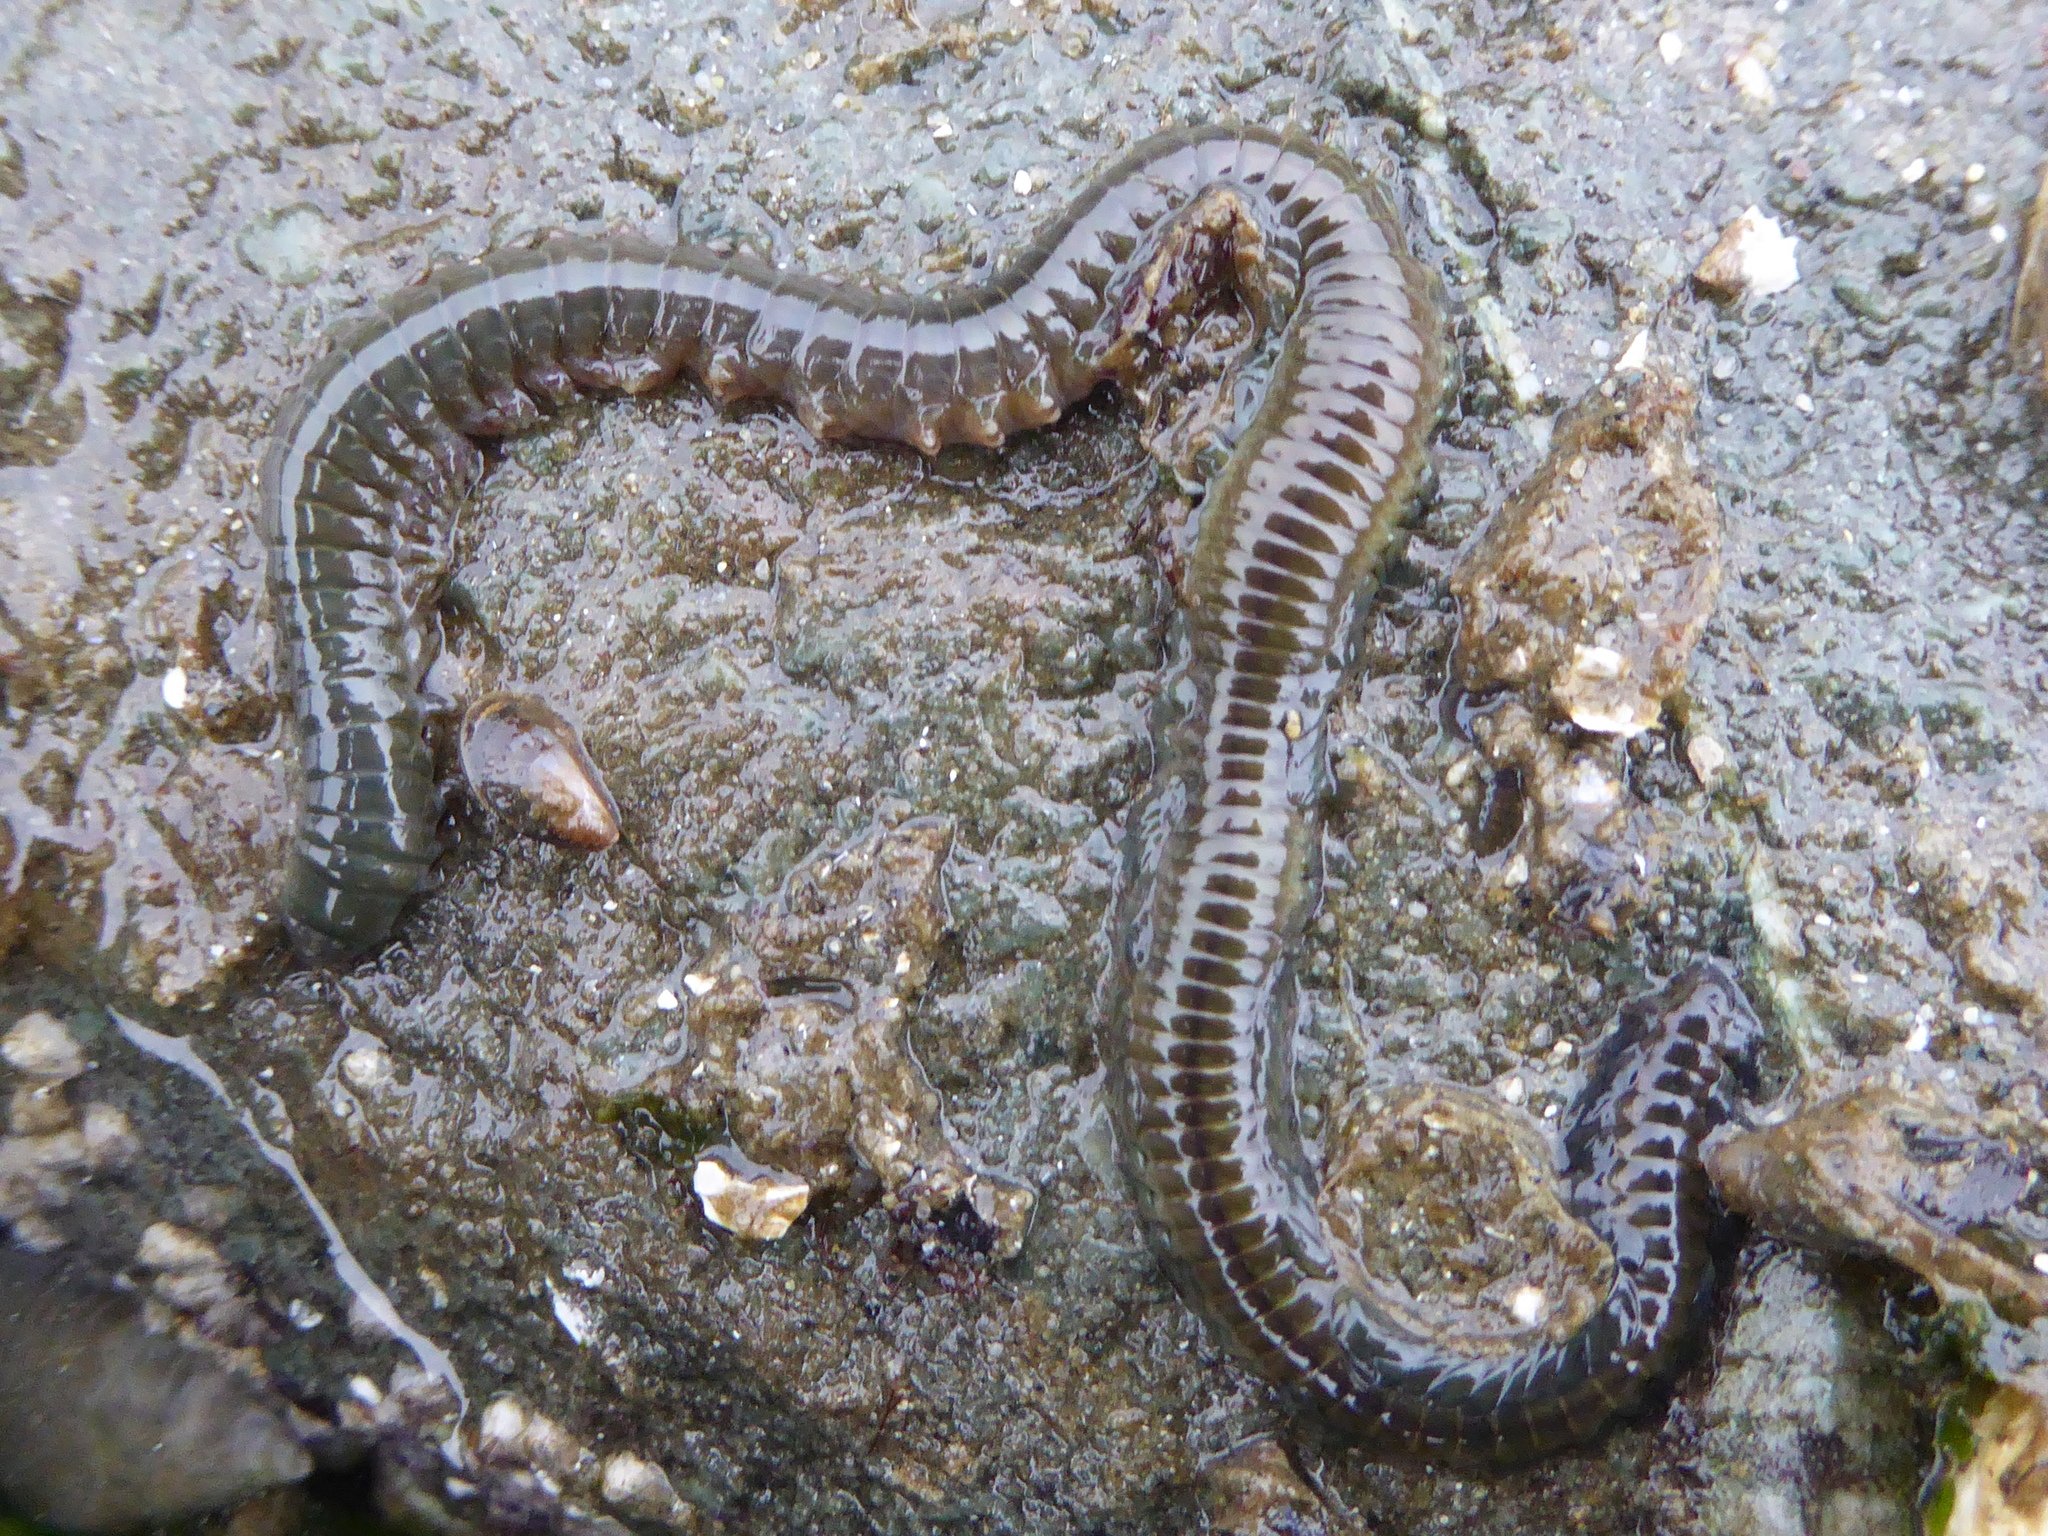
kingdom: Animalia
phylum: Annelida
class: Polychaeta
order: Phyllodocida
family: Nereididae
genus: Alitta
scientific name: Alitta williami
